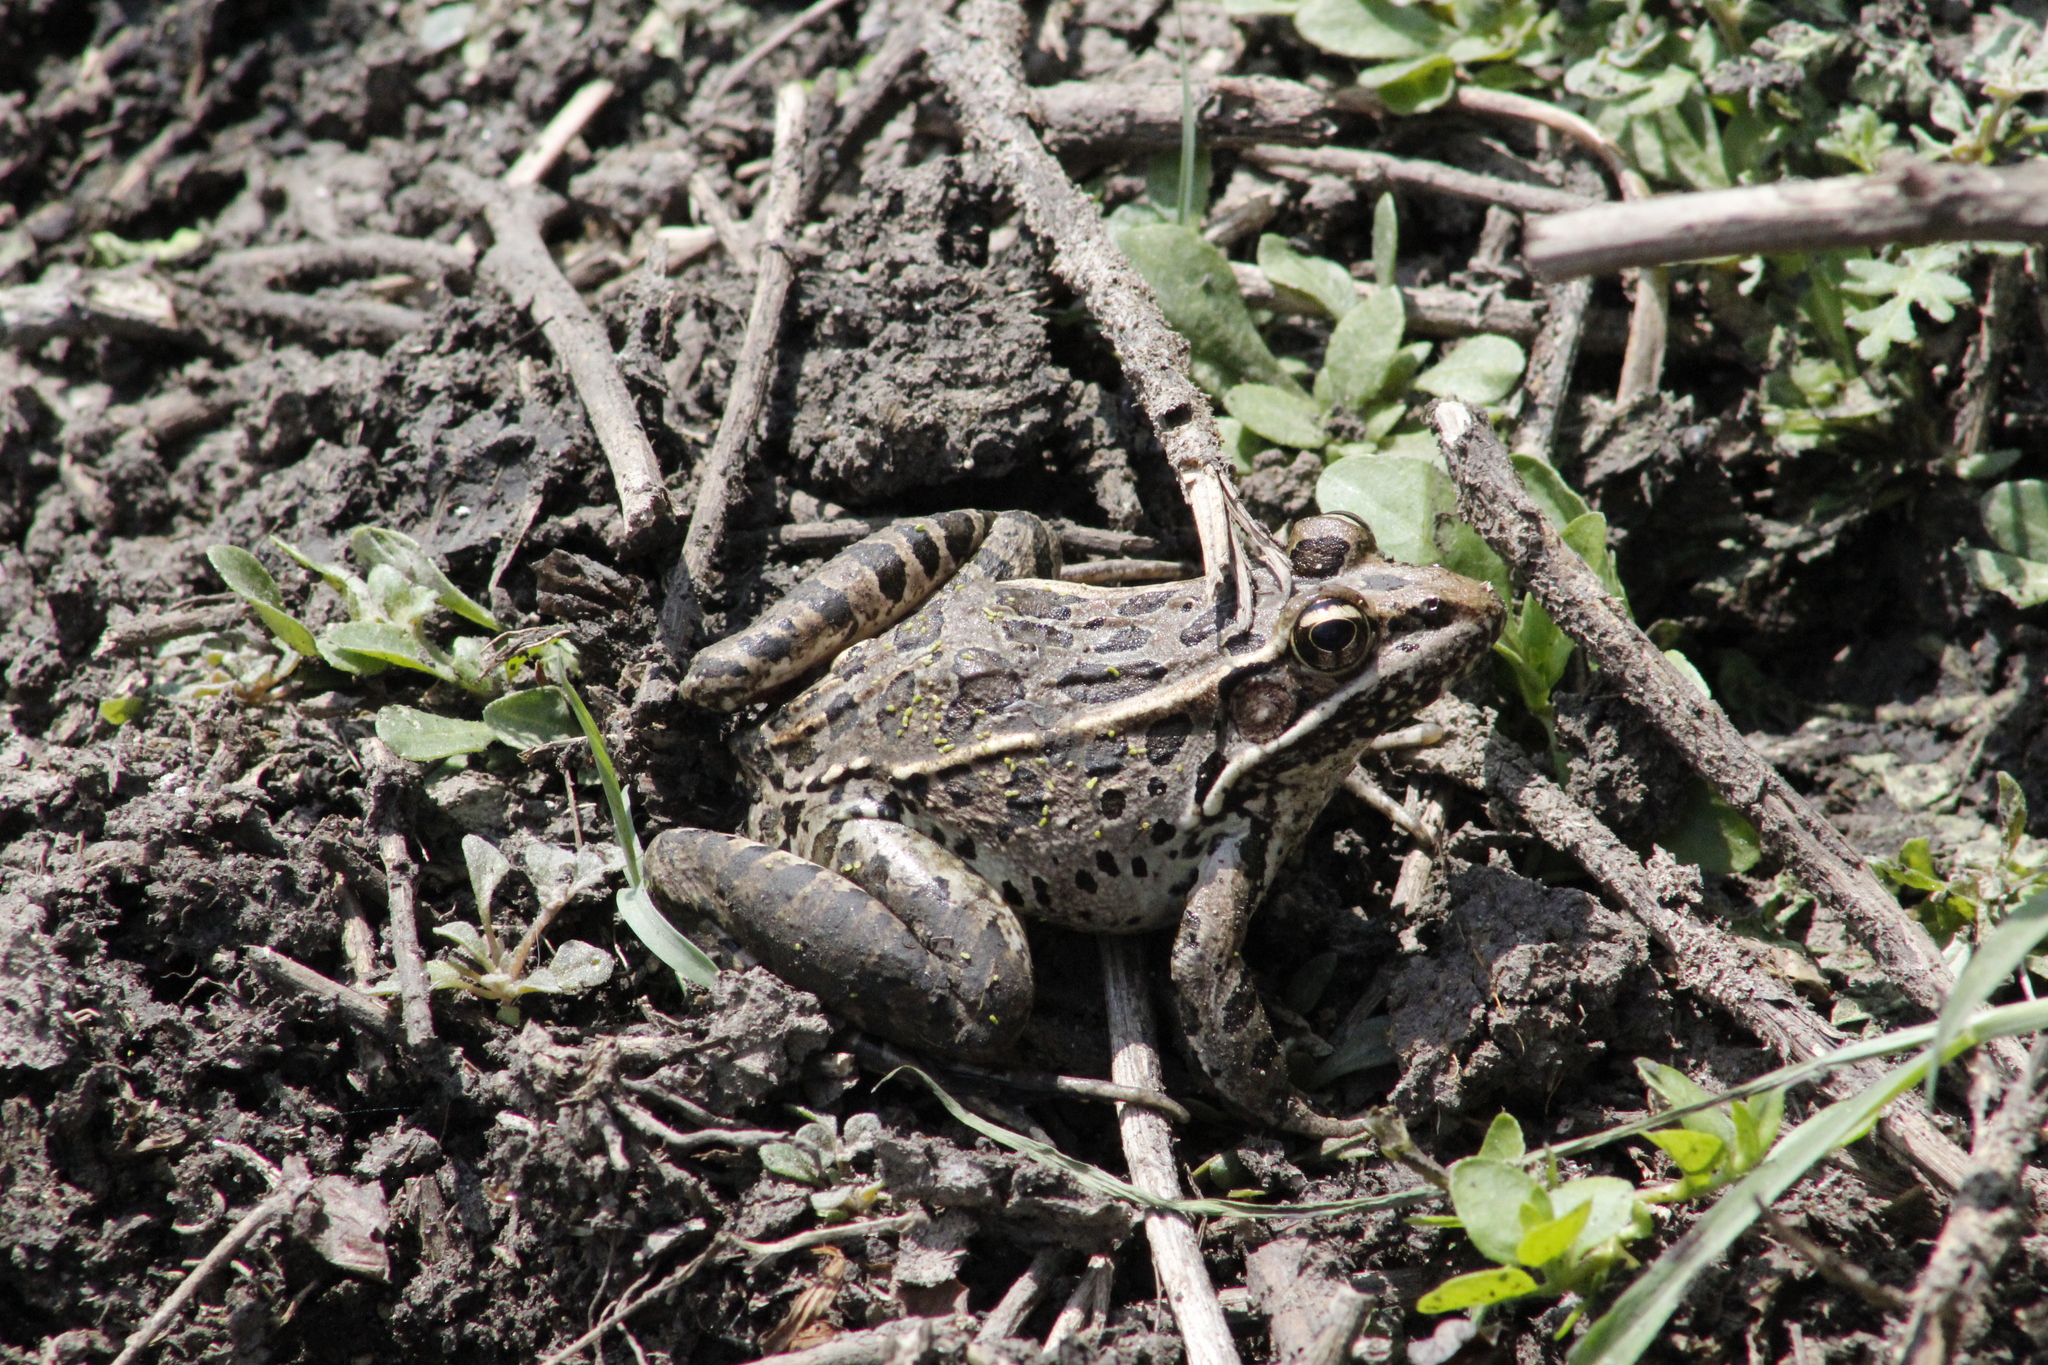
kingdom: Animalia
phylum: Chordata
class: Amphibia
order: Anura
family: Ranidae
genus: Lithobates
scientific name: Lithobates neovolcanicus
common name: Transverse volcanic leopard frog
